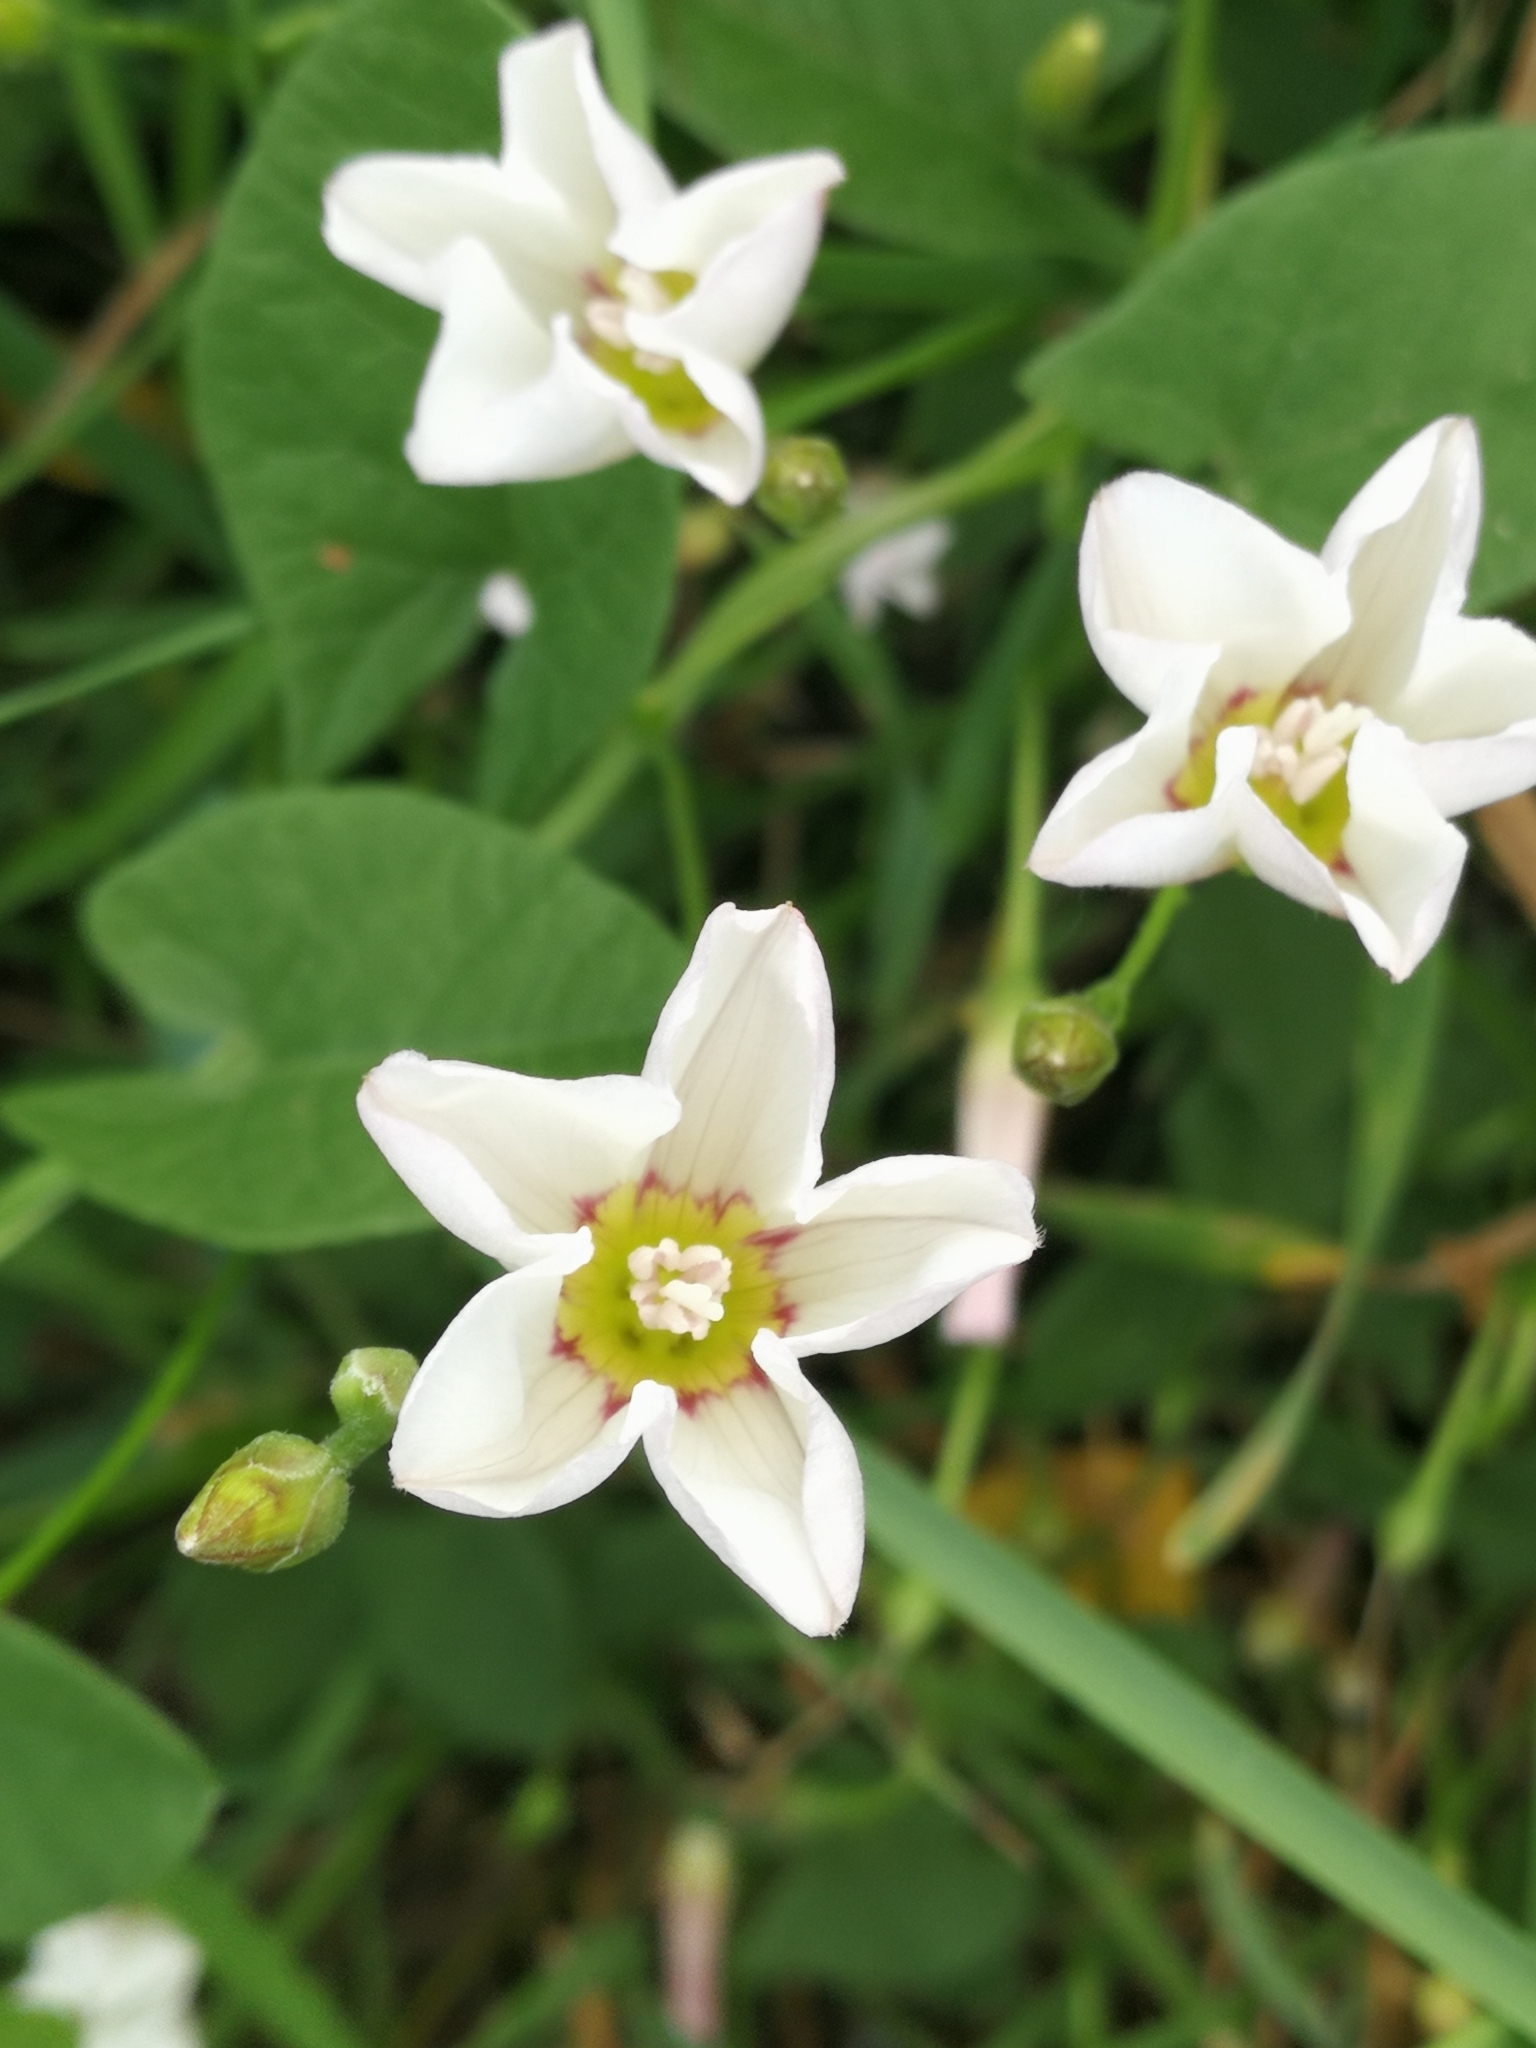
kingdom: Plantae
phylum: Tracheophyta
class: Magnoliopsida
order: Solanales
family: Convolvulaceae
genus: Convolvulus
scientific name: Convolvulus arvensis
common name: Field bindweed
